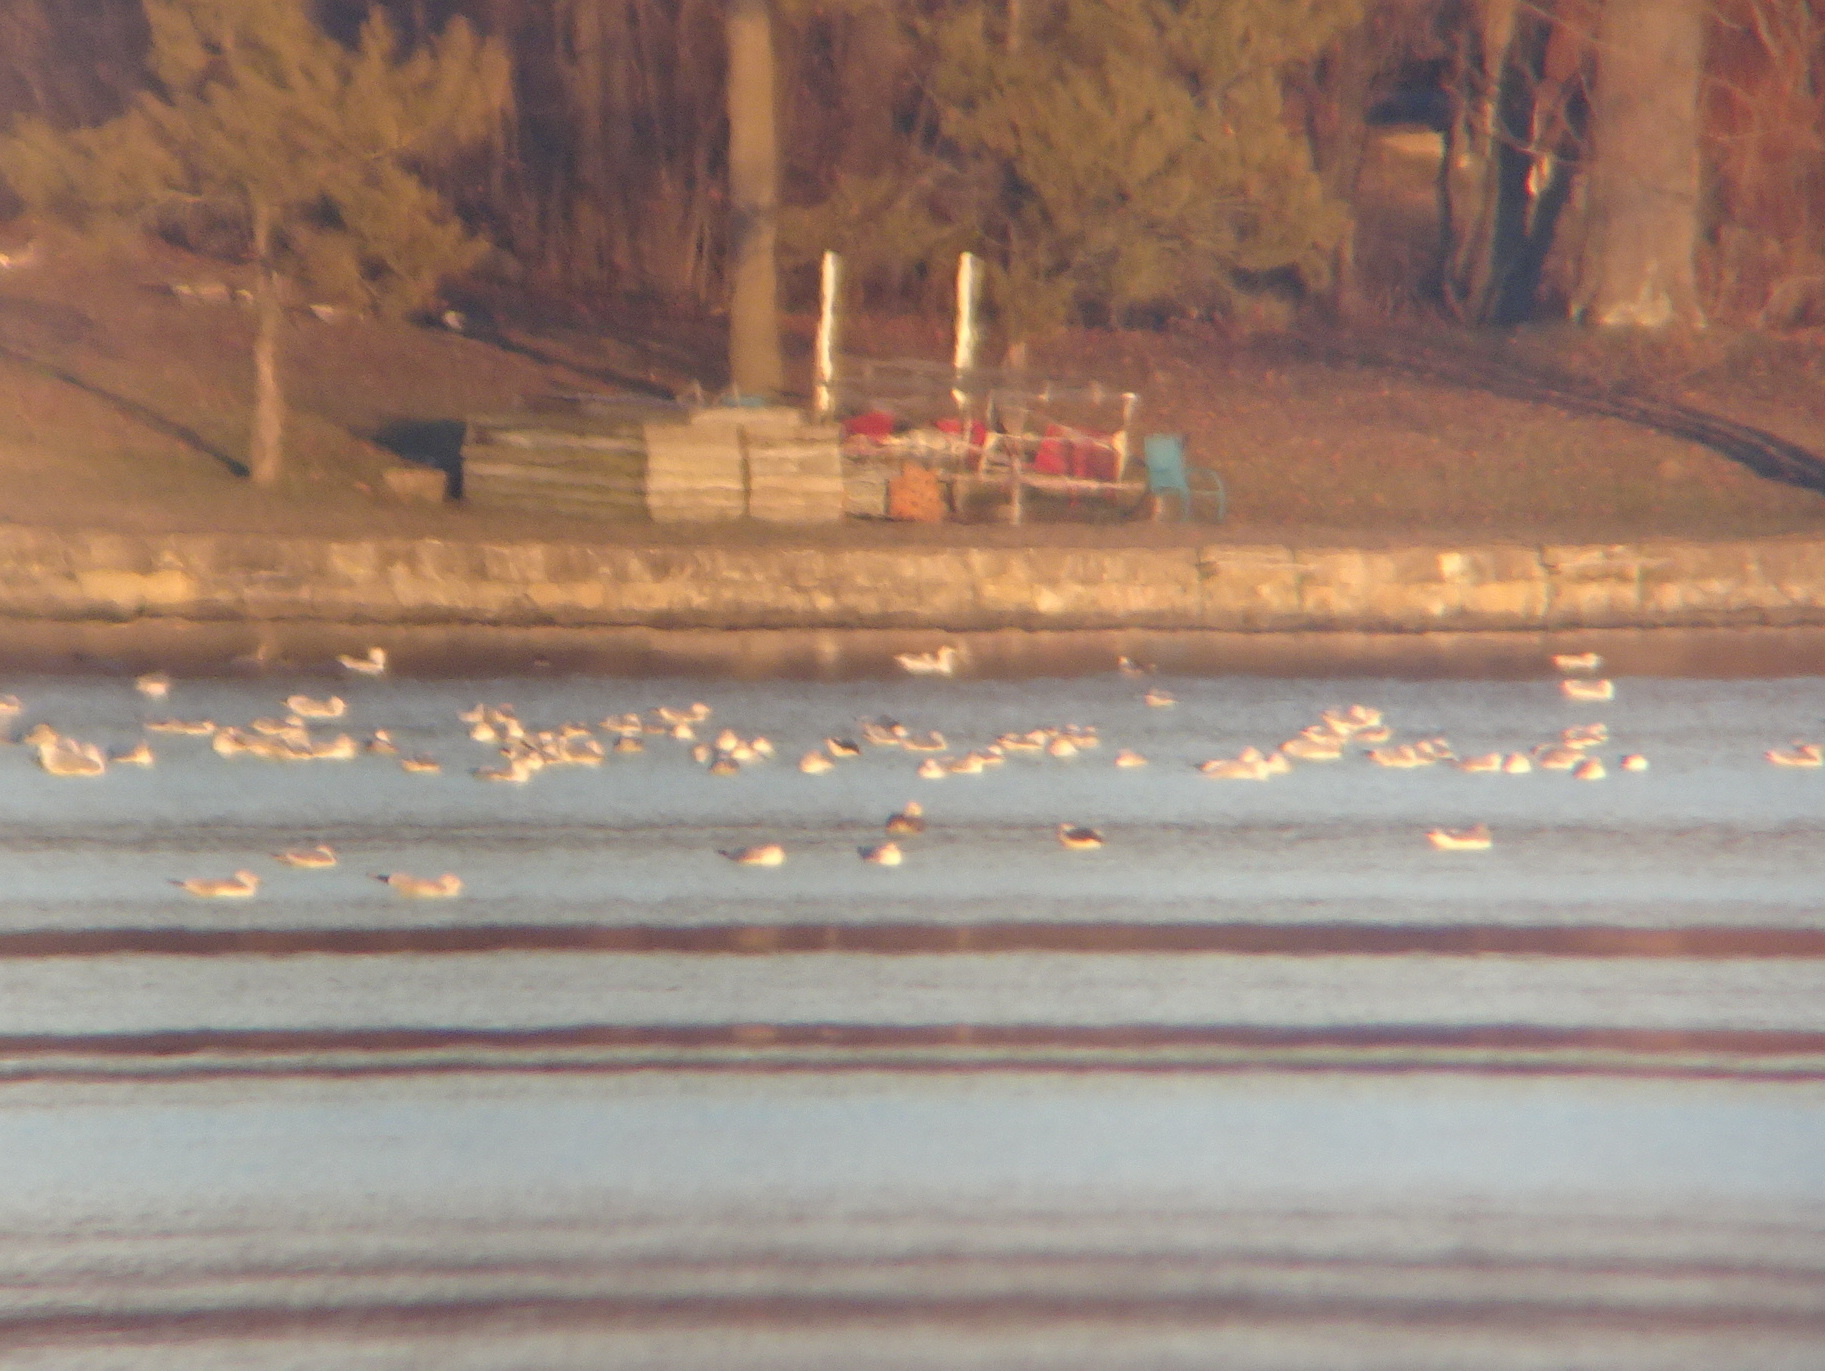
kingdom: Animalia
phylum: Chordata
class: Aves
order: Charadriiformes
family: Laridae
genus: Larus
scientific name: Larus fuscus
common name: Lesser black-backed gull
